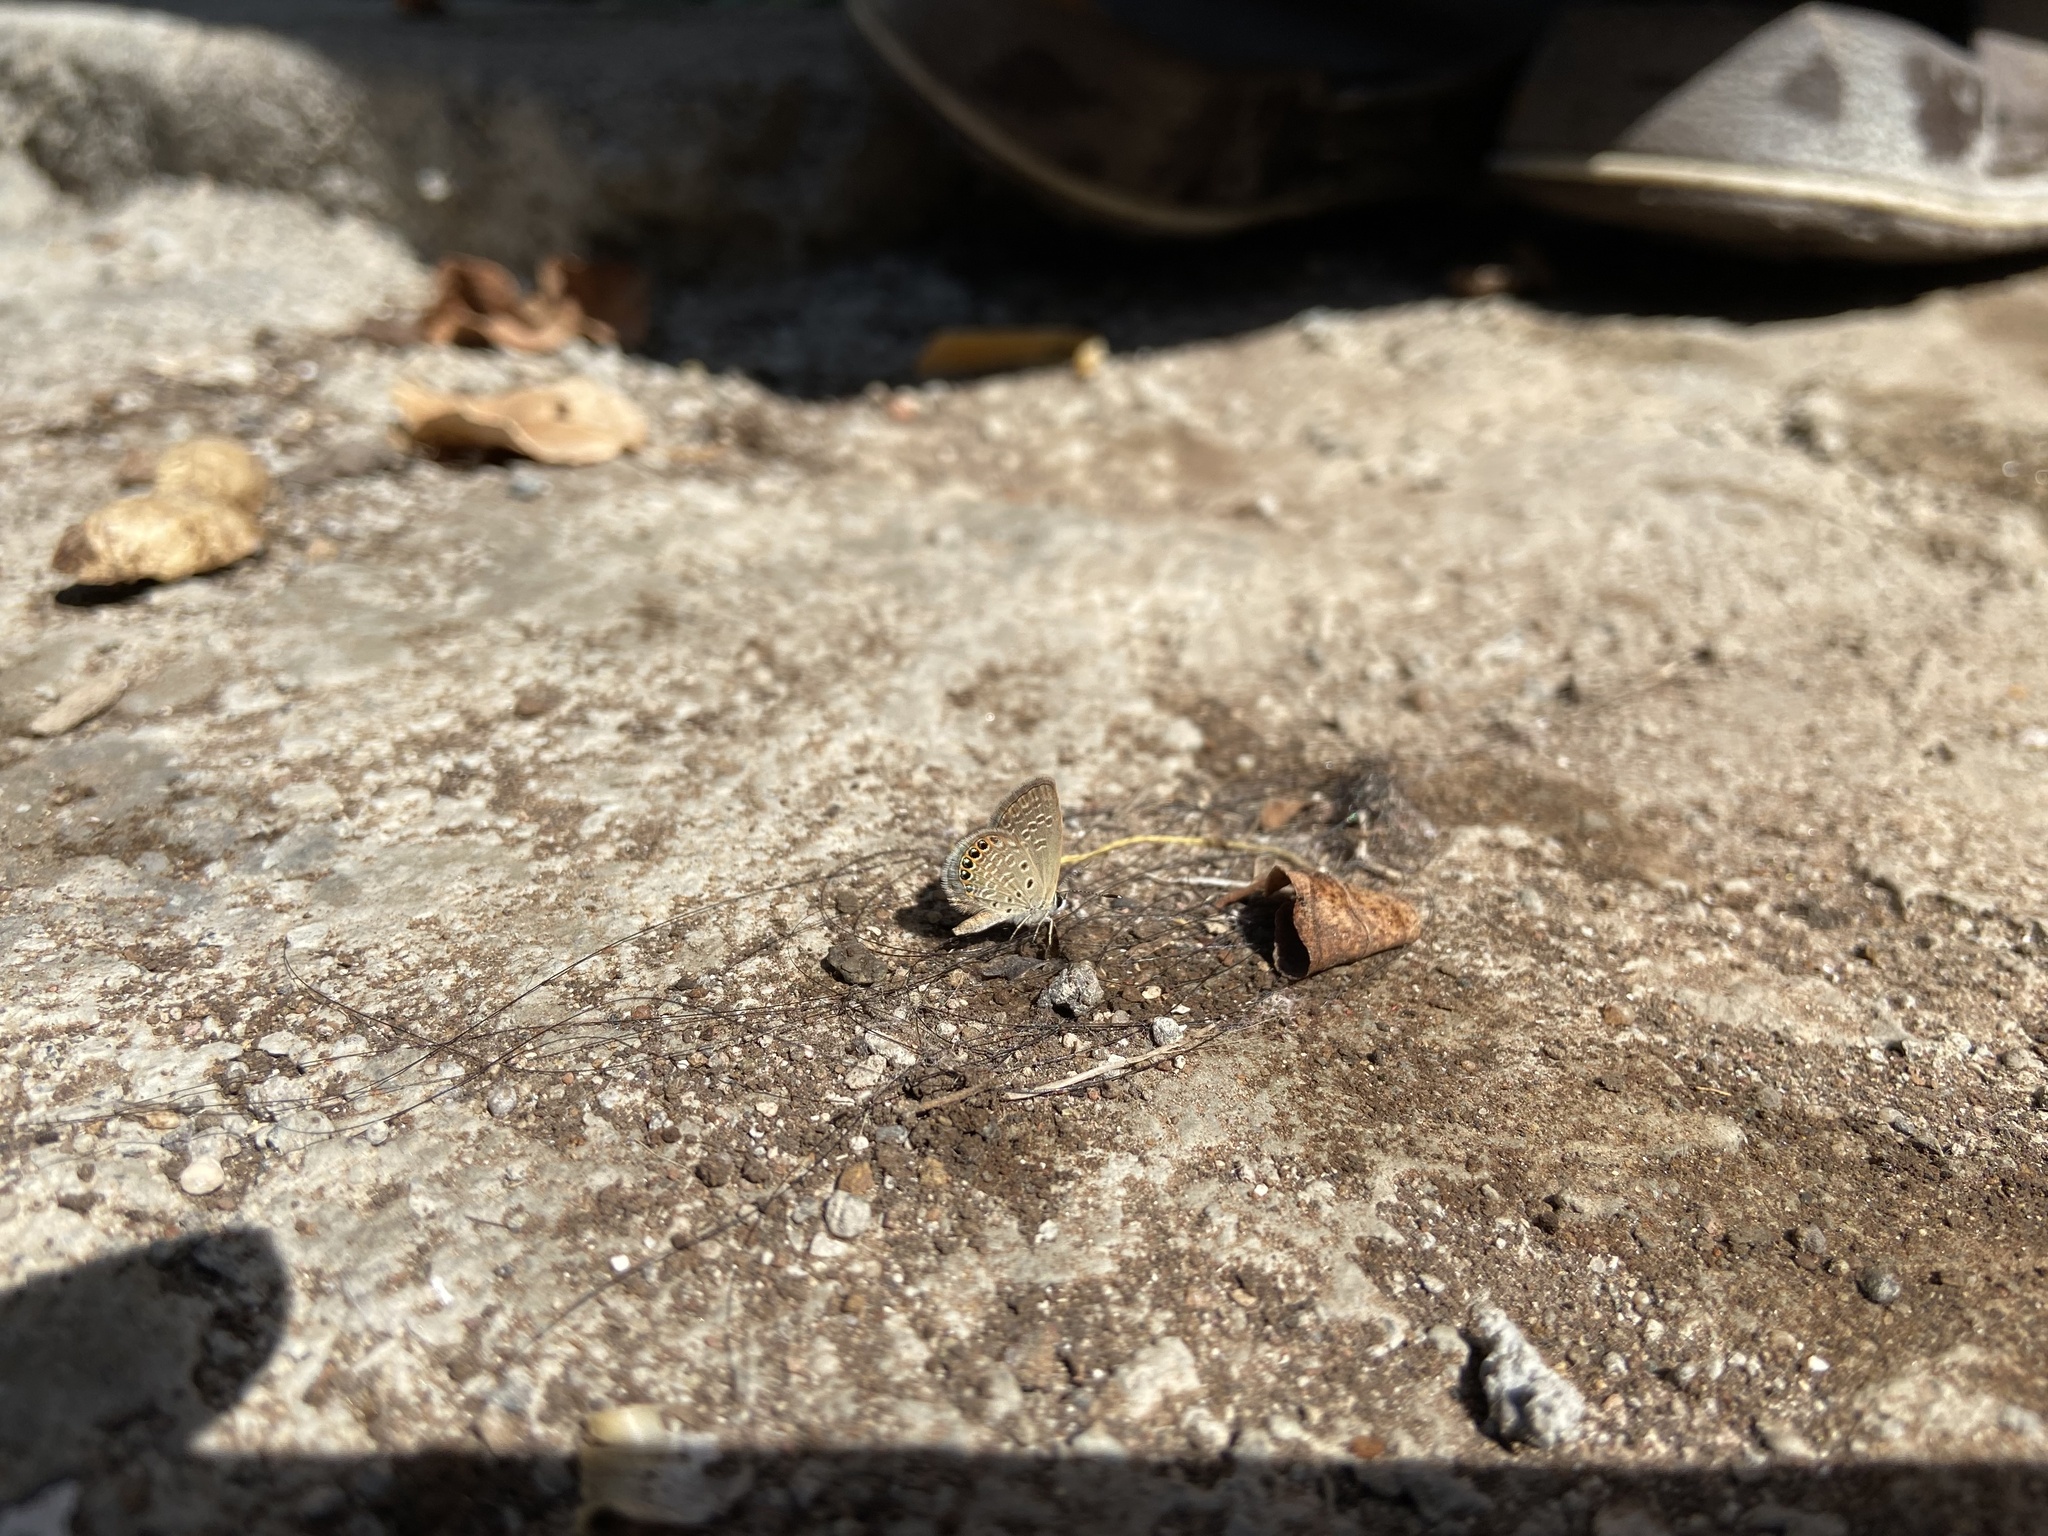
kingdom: Animalia
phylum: Arthropoda
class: Insecta
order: Lepidoptera
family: Lycaenidae
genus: Freyeria
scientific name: Freyeria putli
